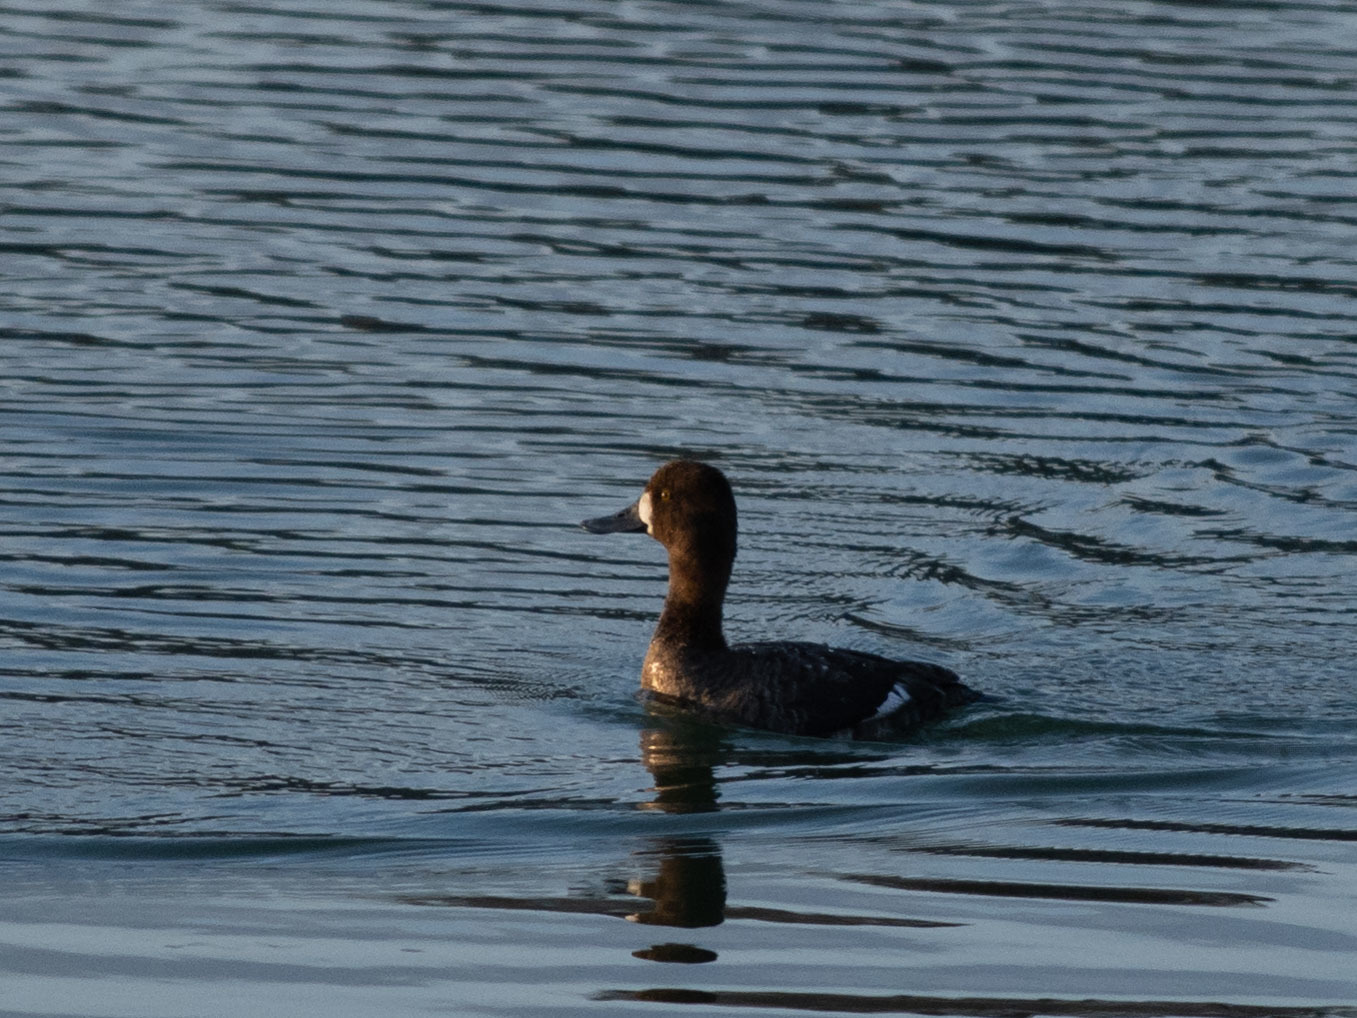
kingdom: Animalia
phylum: Chordata
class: Aves
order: Anseriformes
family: Anatidae
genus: Aythya
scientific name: Aythya affinis
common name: Lesser scaup
